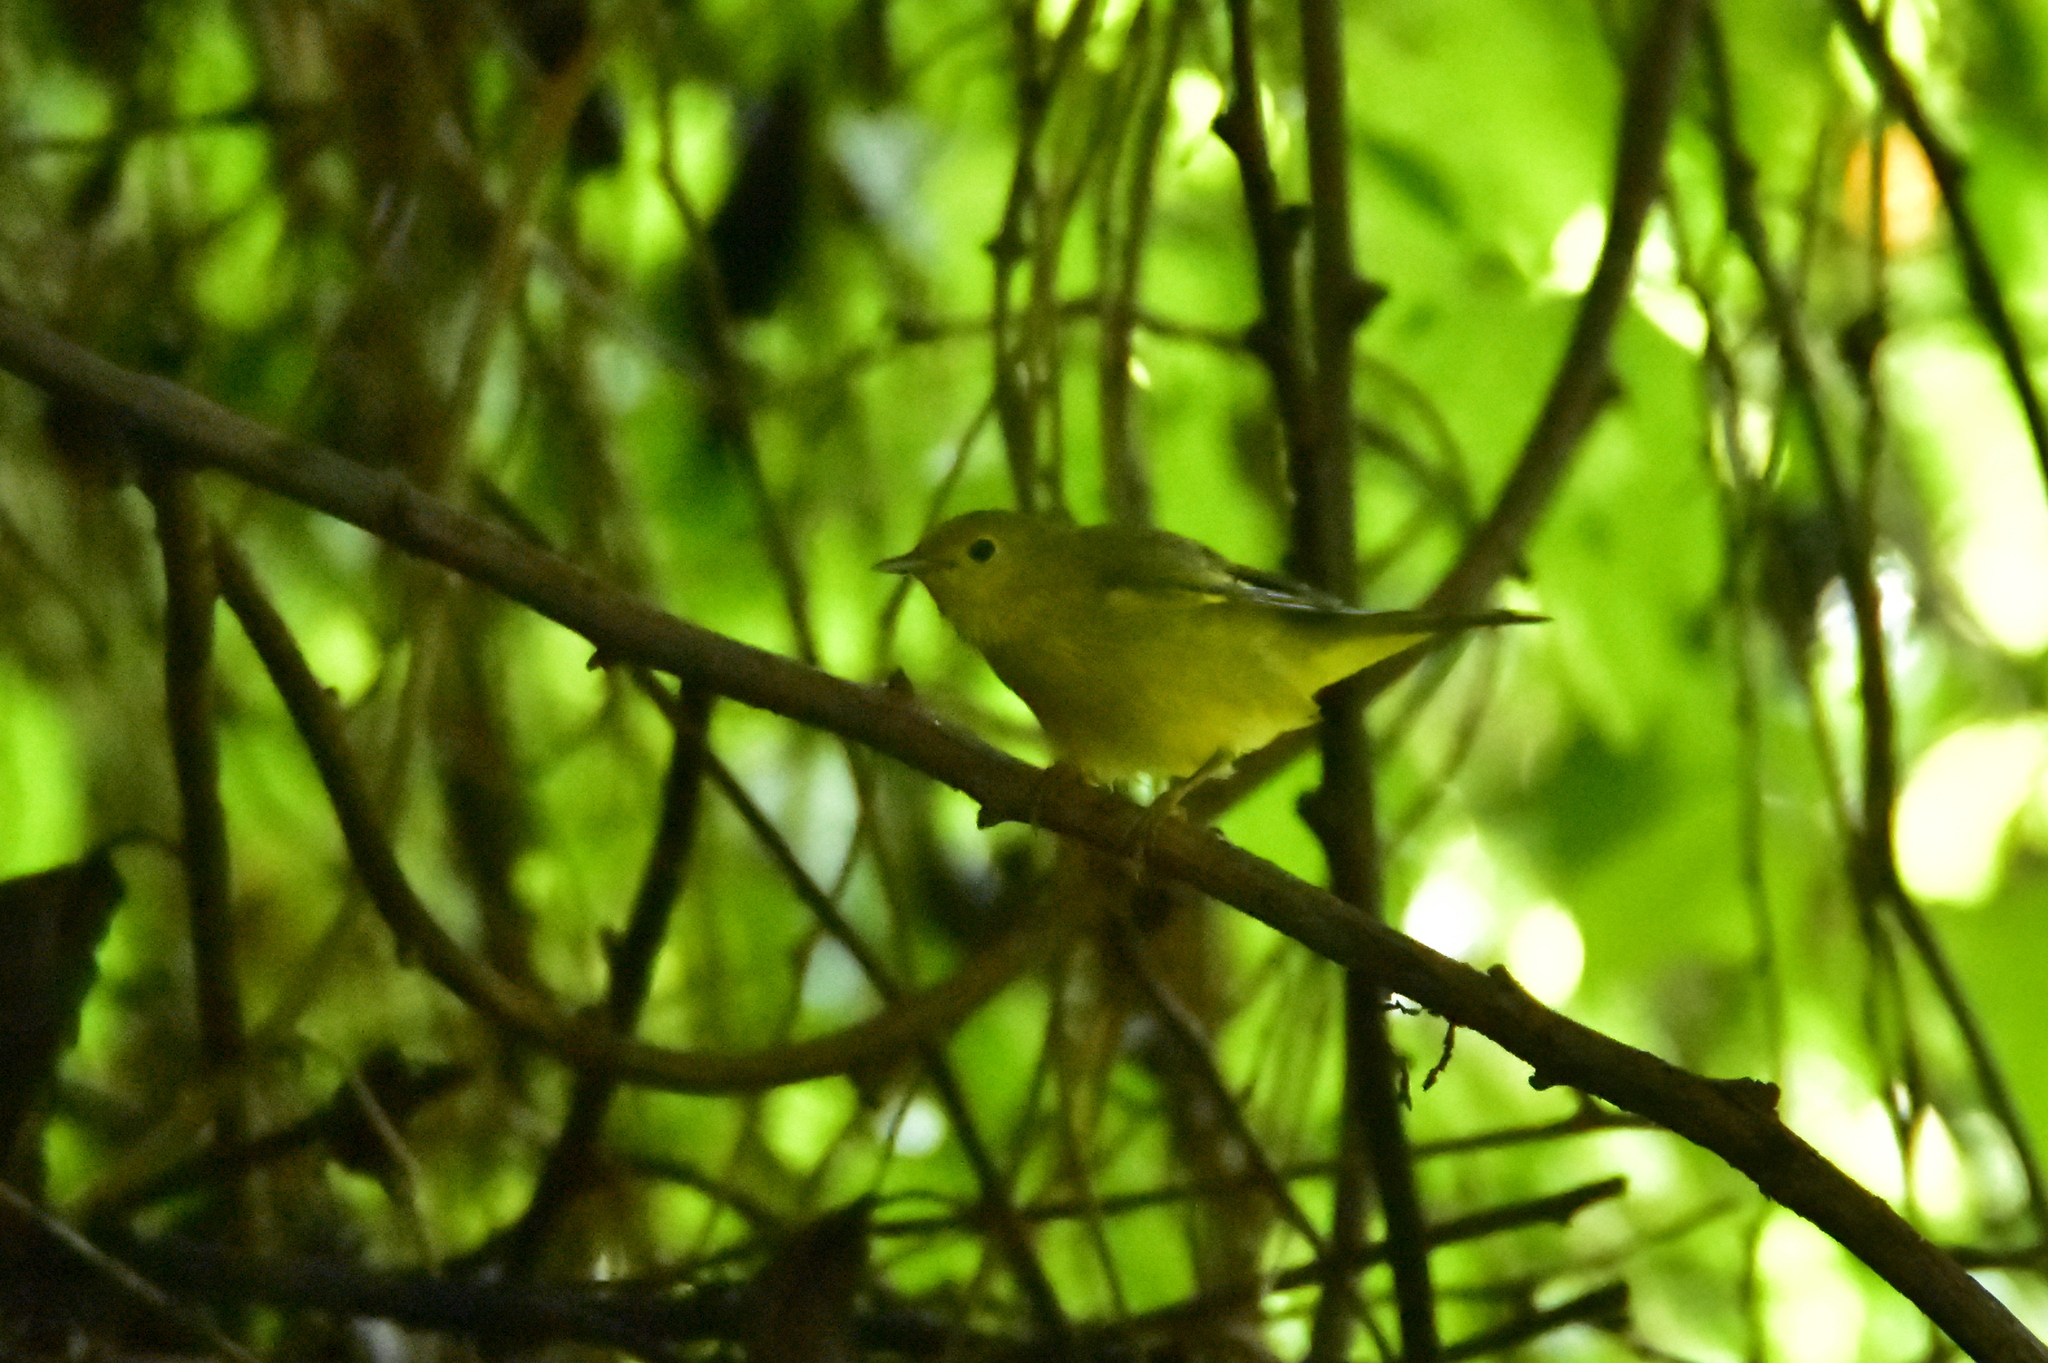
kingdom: Animalia
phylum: Chordata
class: Aves
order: Passeriformes
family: Parulidae
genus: Setophaga
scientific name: Setophaga petechia
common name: Yellow warbler
